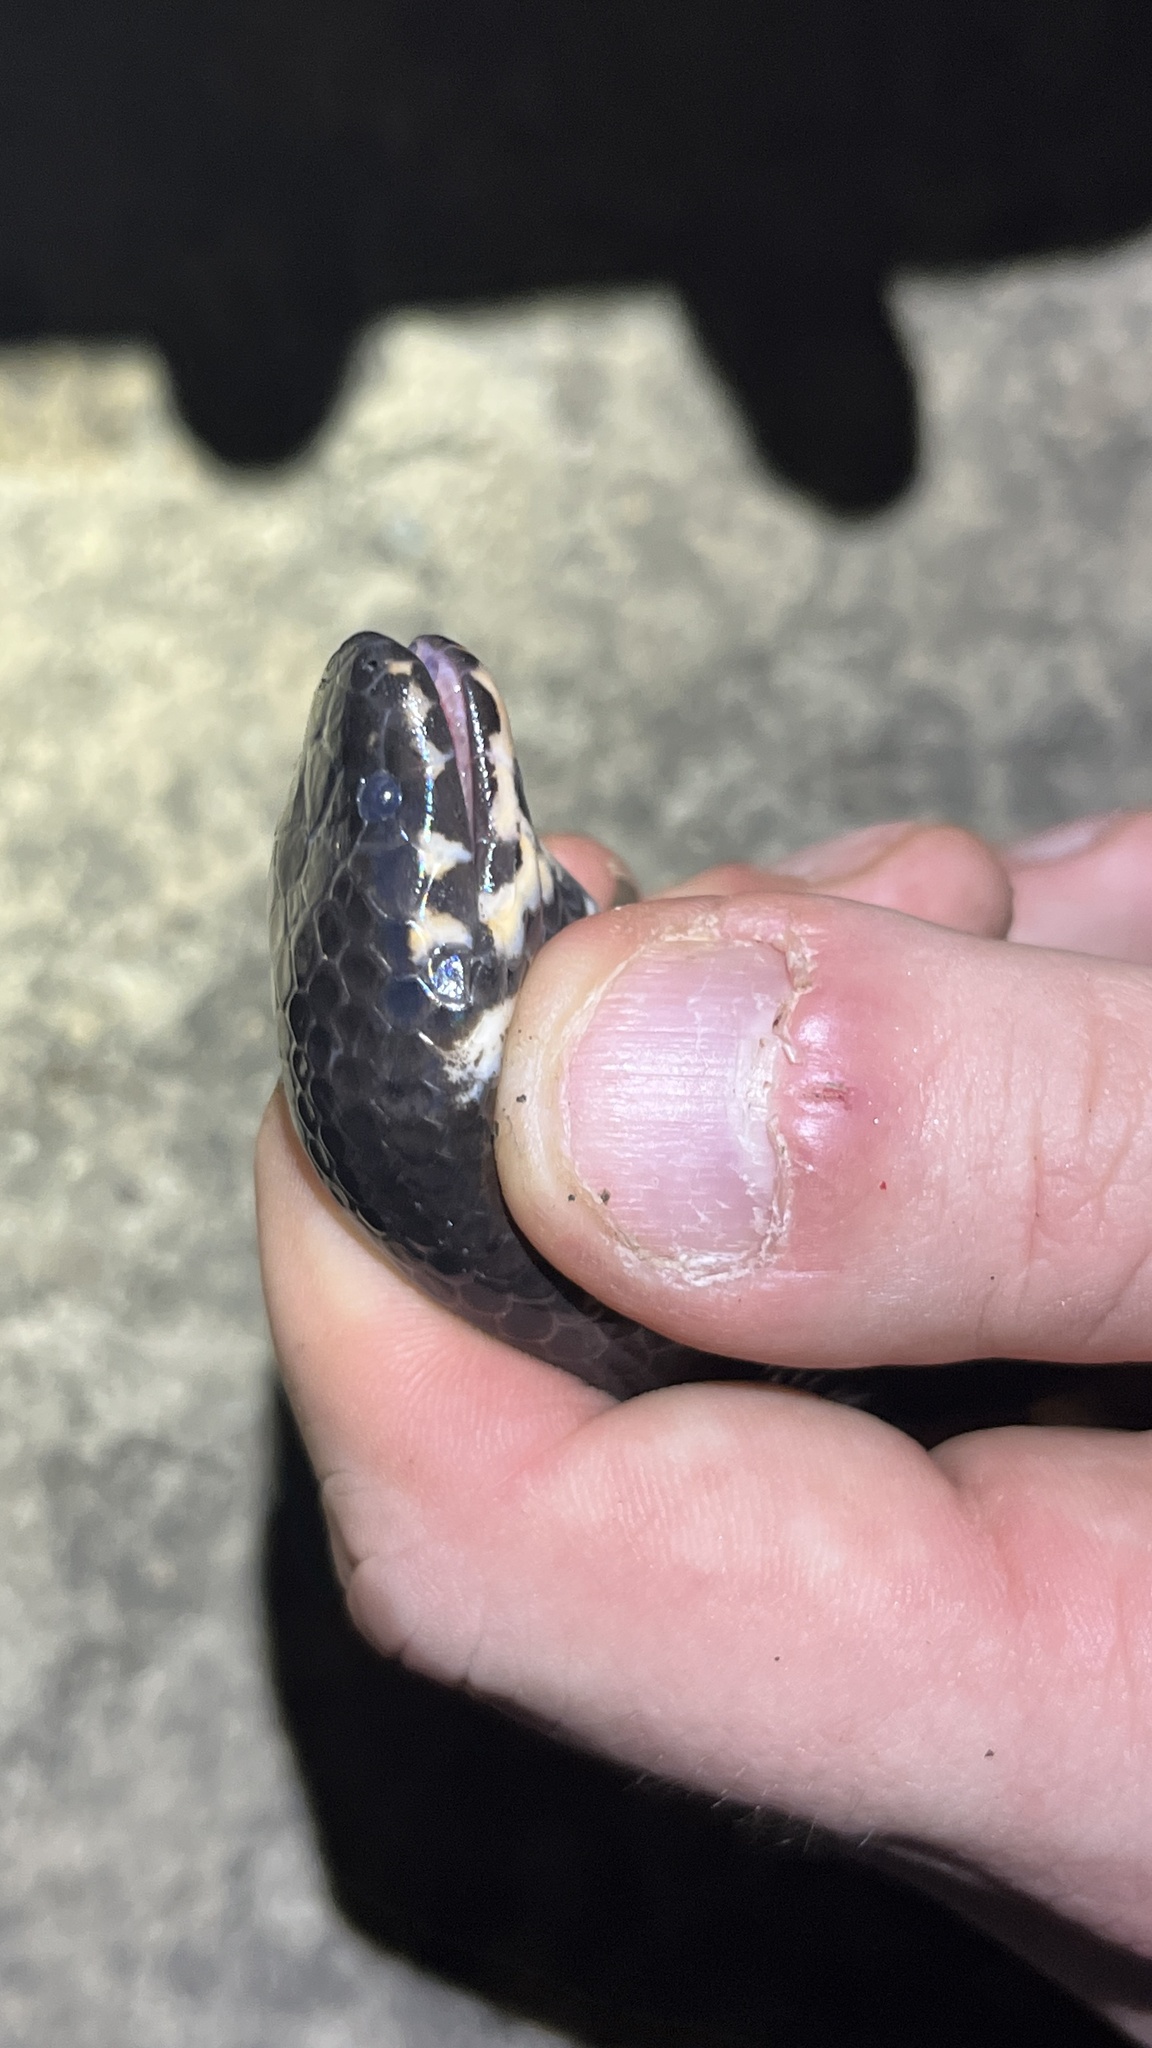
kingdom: Animalia
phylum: Chordata
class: Squamata
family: Cylindrophiidae
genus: Cylindrophis
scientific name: Cylindrophis jodiae
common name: Jodi’s pipe-snake
